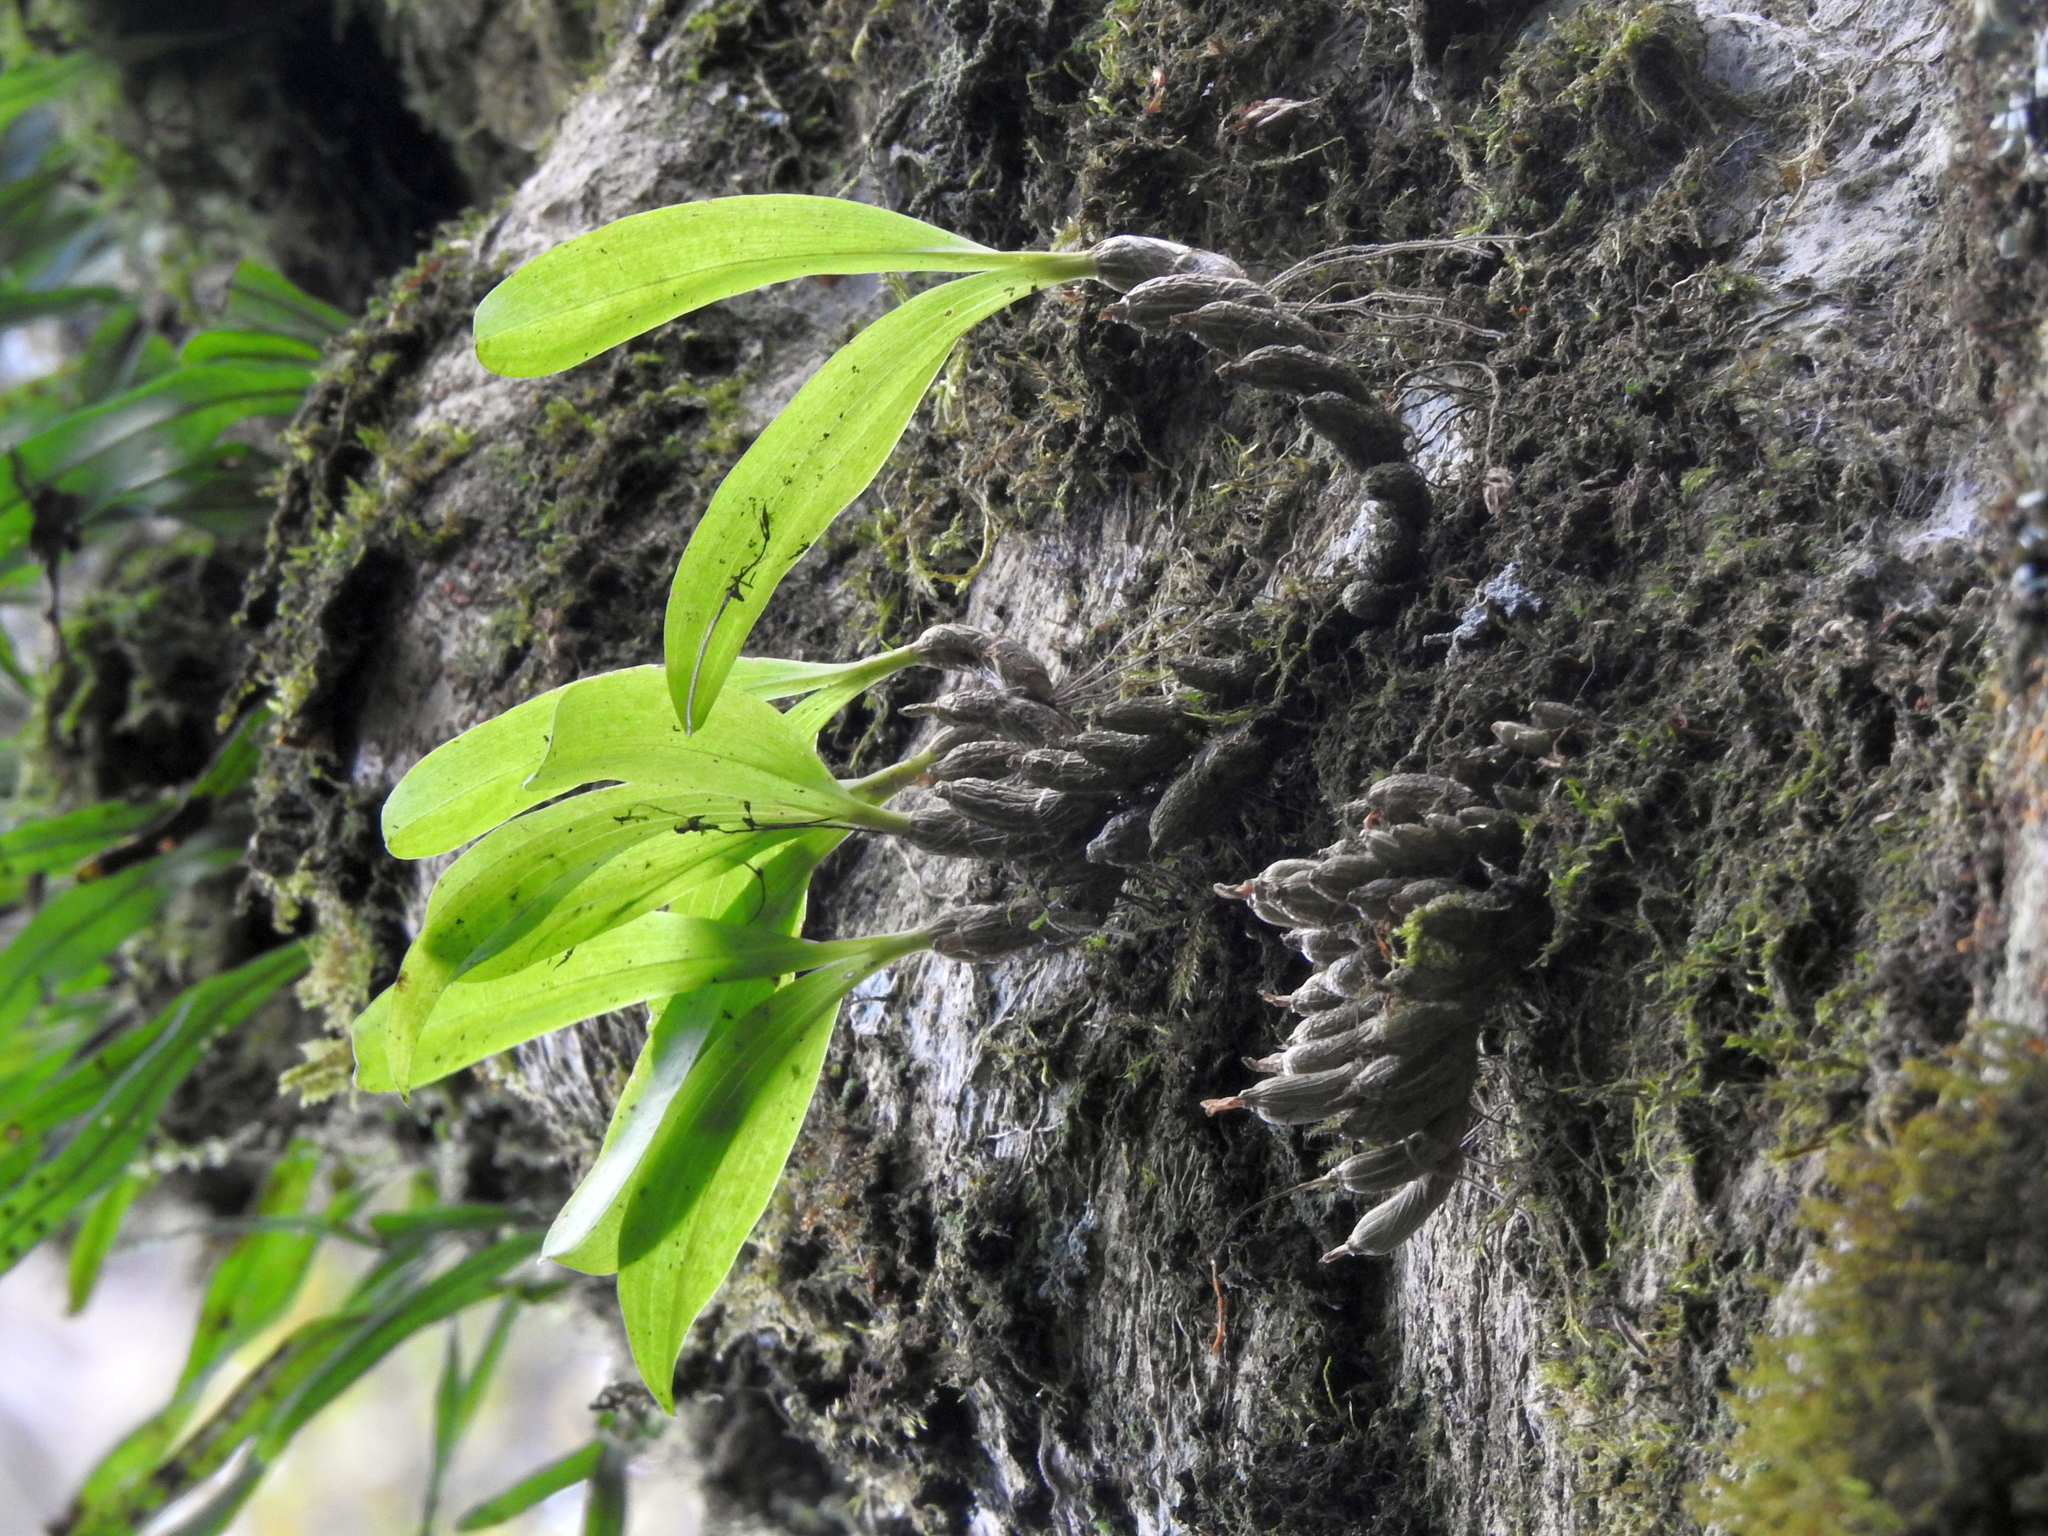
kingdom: Plantae
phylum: Tracheophyta
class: Liliopsida
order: Asparagales
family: Orchidaceae
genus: Pinalia
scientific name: Pinalia japonica
